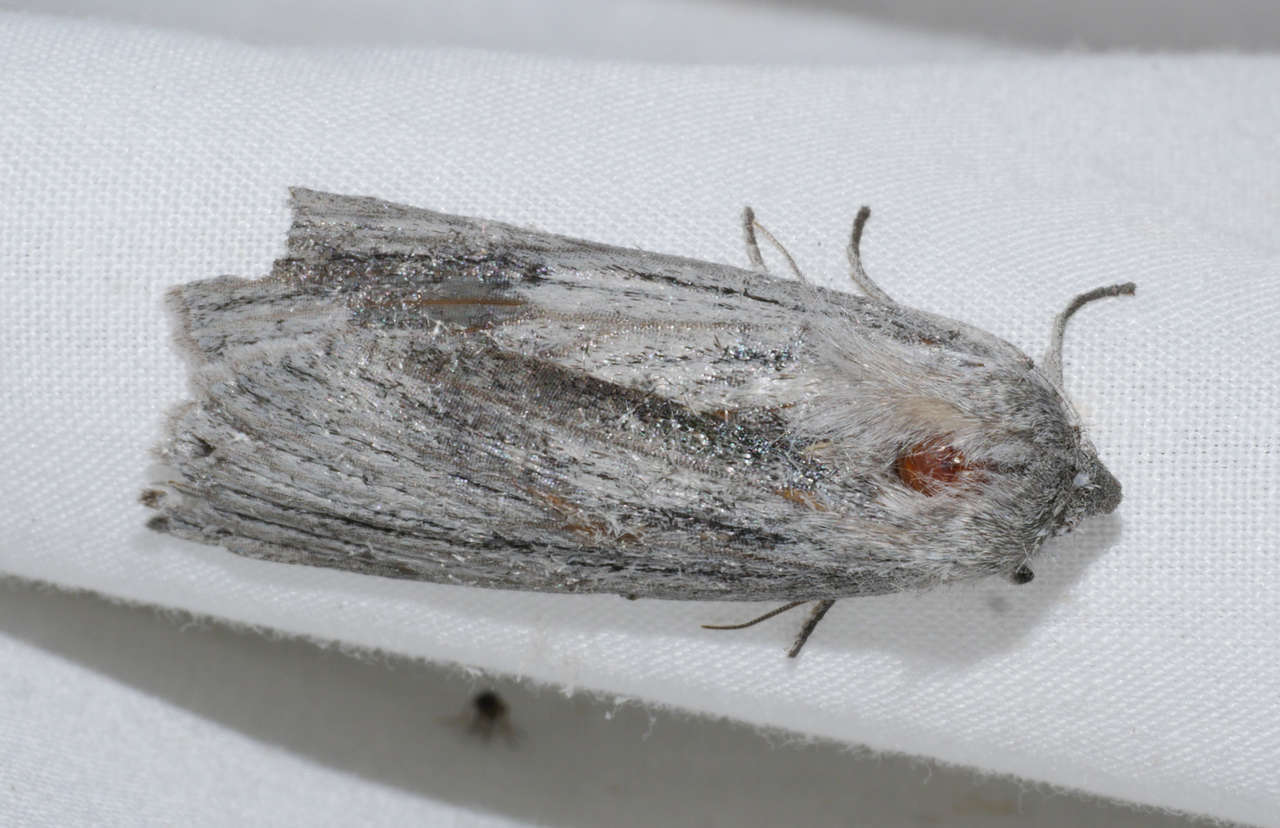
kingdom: Animalia
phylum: Arthropoda
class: Insecta
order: Lepidoptera
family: Geometridae
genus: Chlenias
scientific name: Chlenias stenosticha
